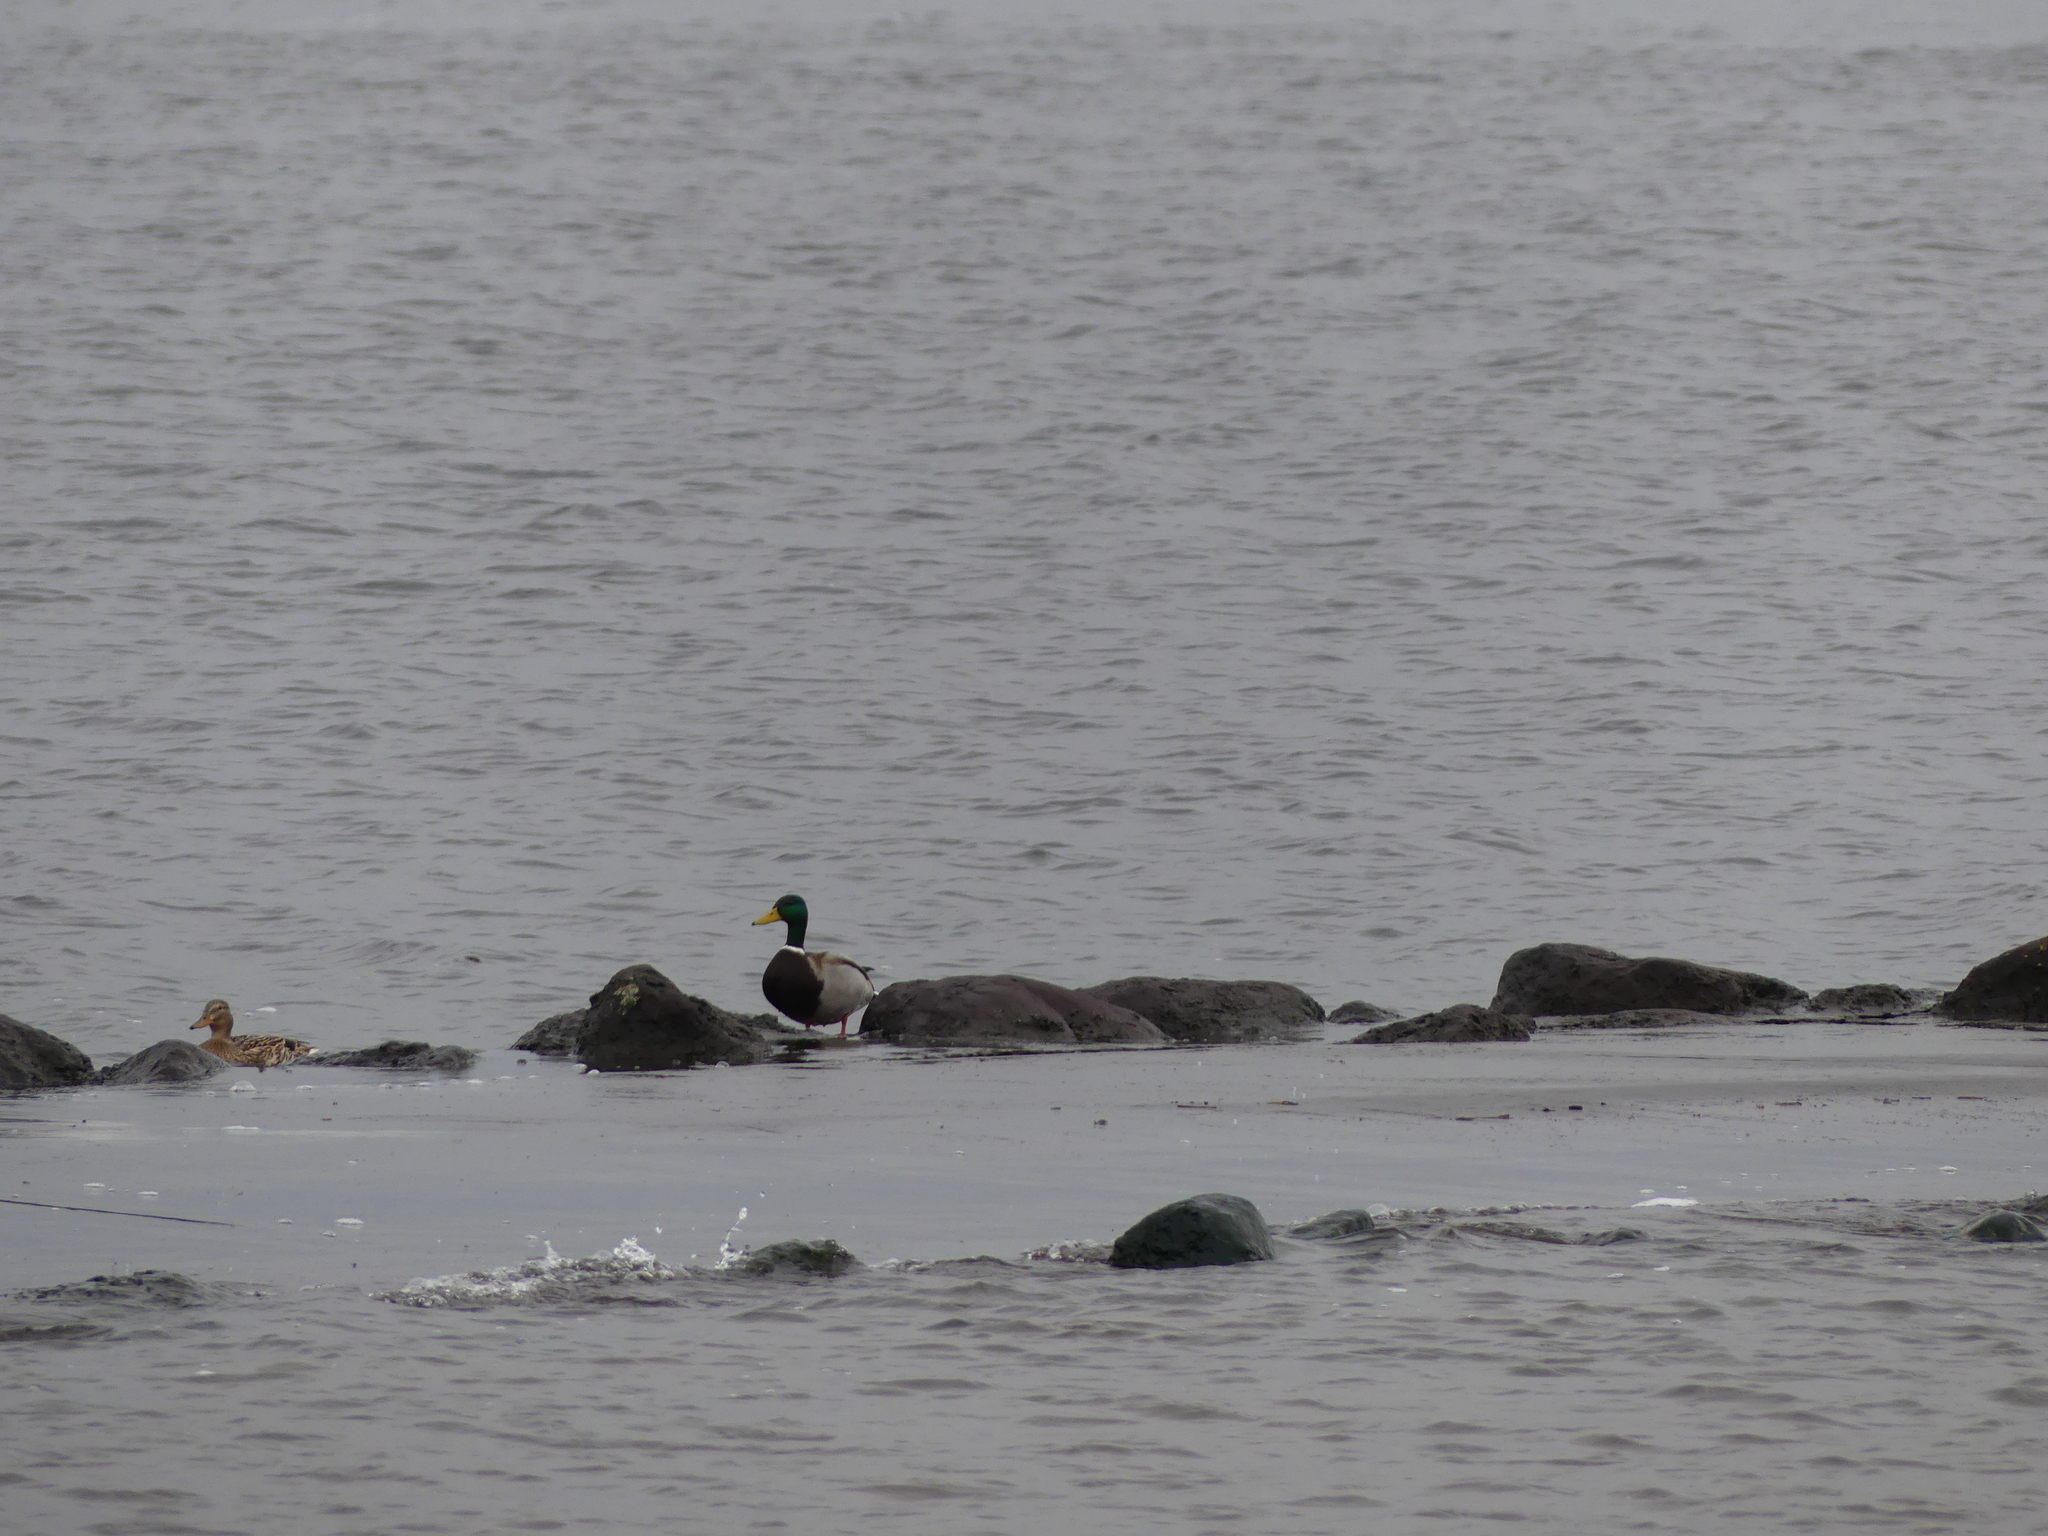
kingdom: Animalia
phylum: Chordata
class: Aves
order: Anseriformes
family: Anatidae
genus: Anas
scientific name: Anas platyrhynchos
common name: Mallard
